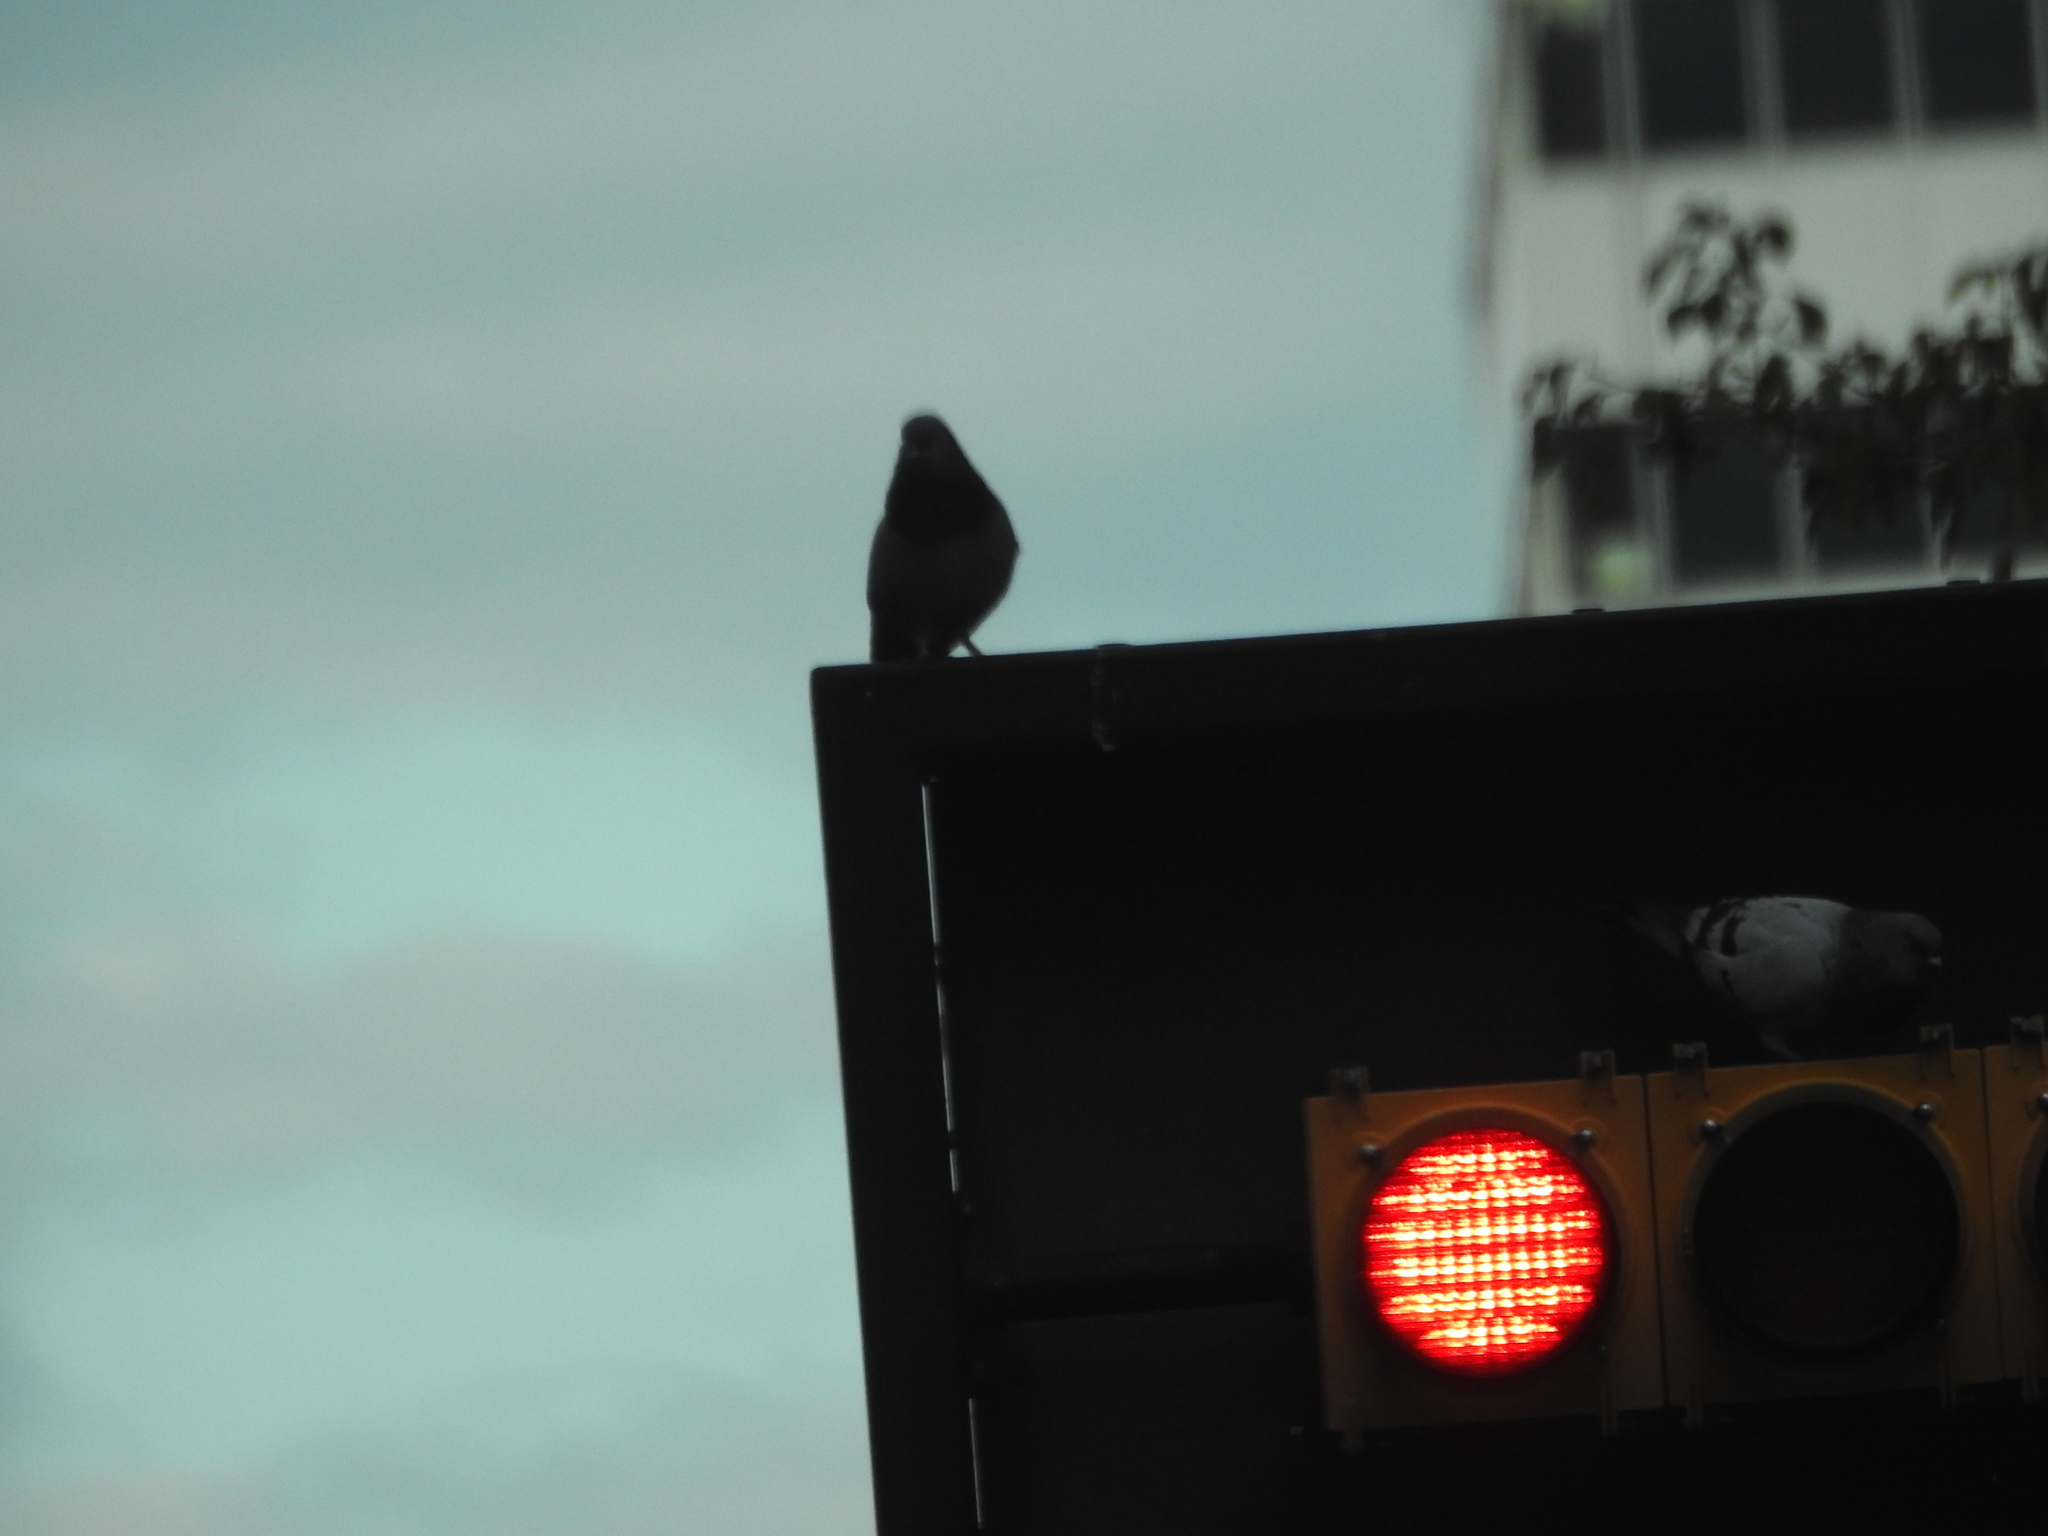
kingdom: Animalia
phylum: Chordata
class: Aves
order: Columbiformes
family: Columbidae
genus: Columba
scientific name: Columba livia
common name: Rock pigeon
